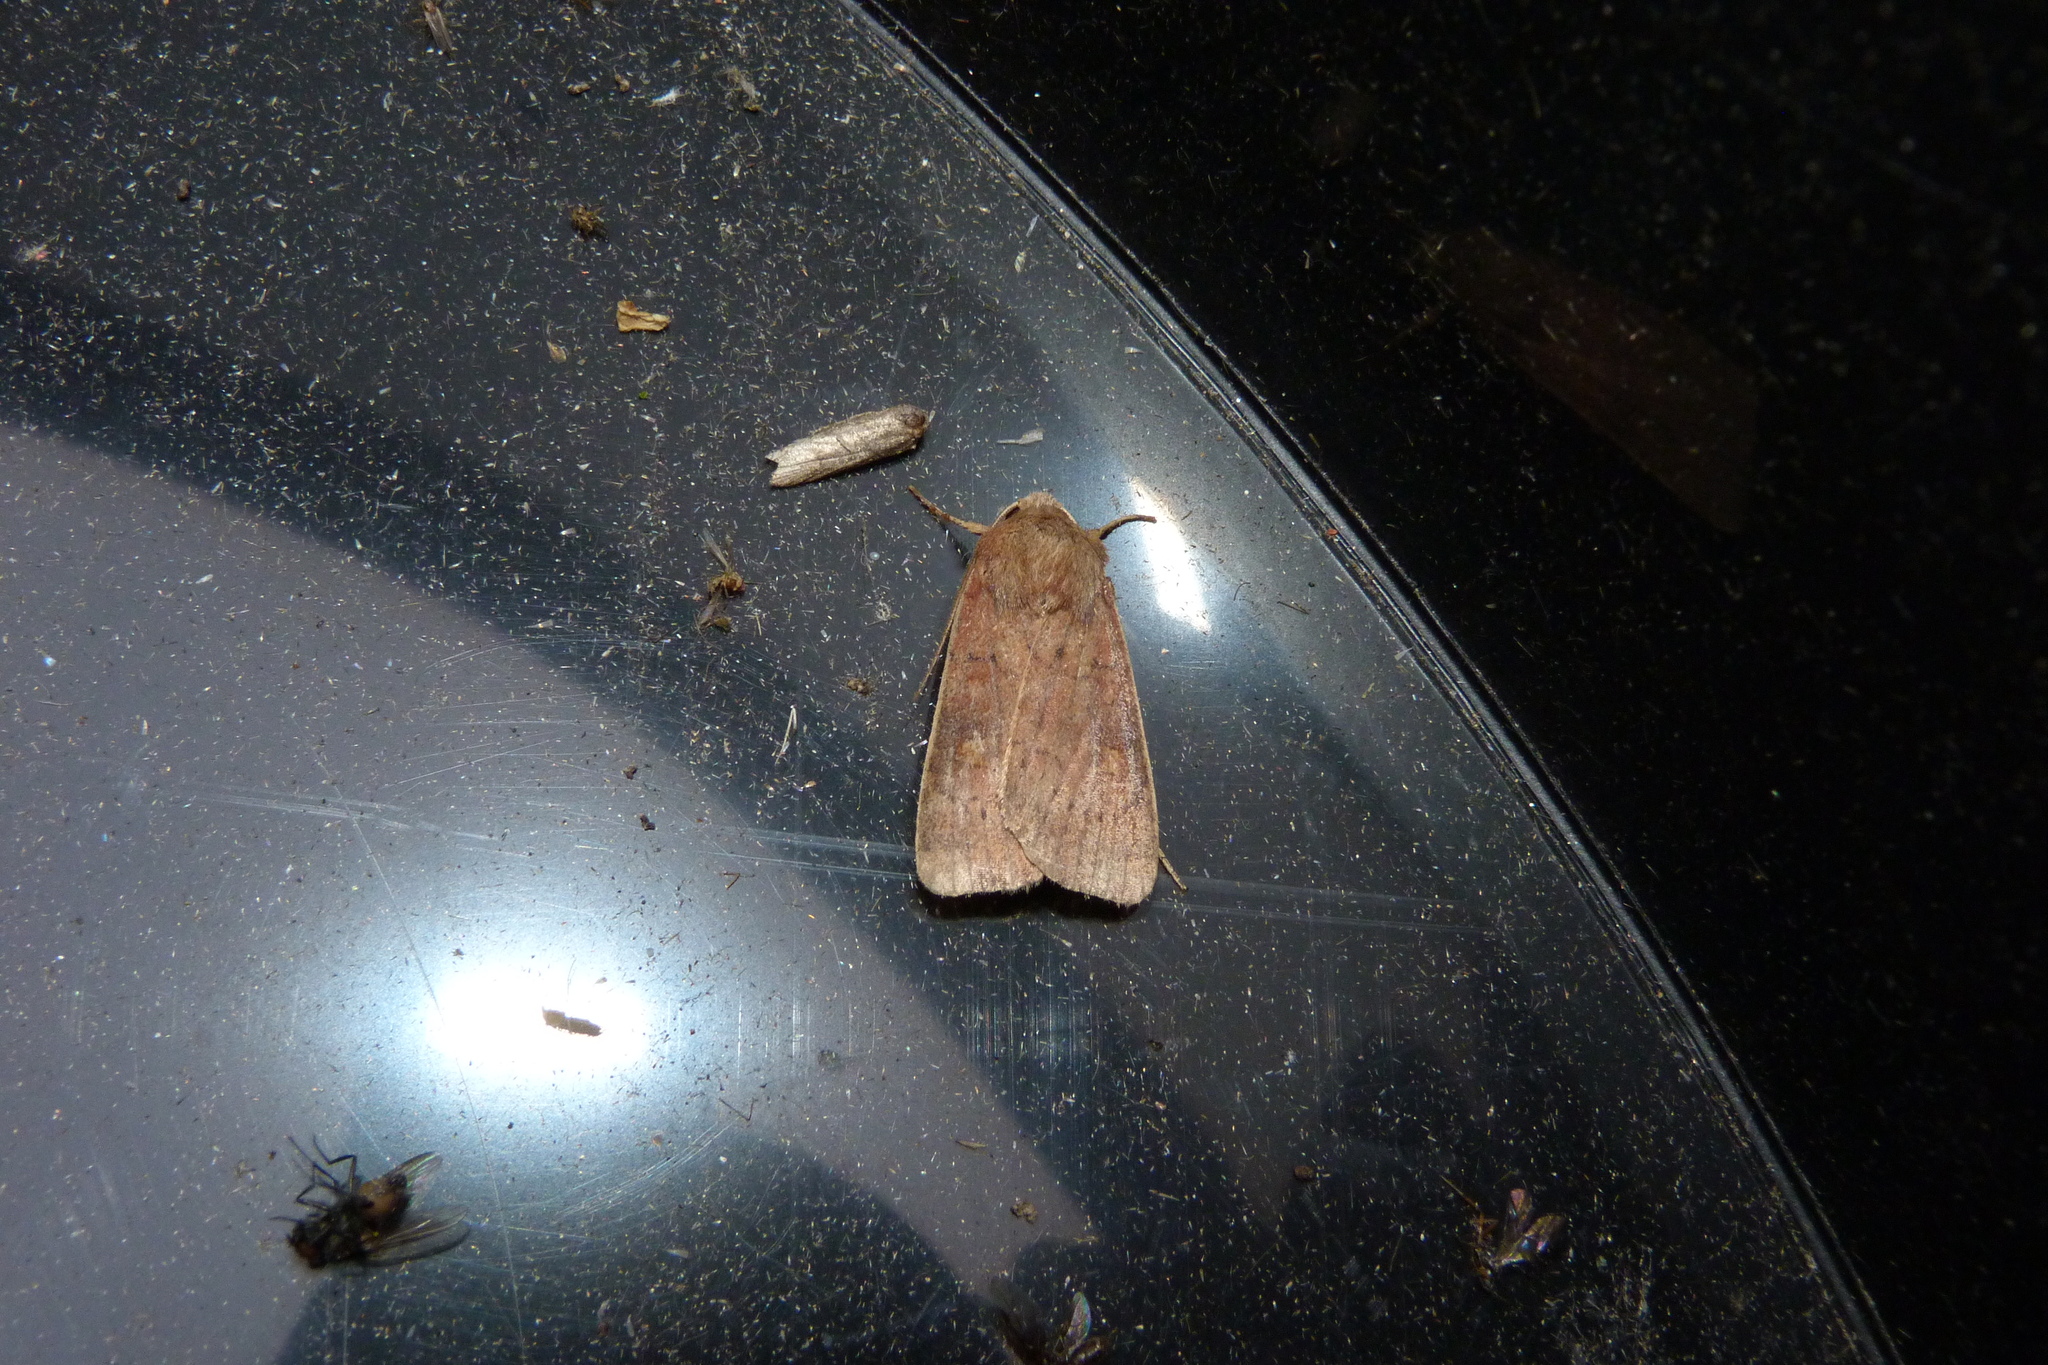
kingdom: Animalia
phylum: Arthropoda
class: Insecta
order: Lepidoptera
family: Noctuidae
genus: Xestia
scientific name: Xestia xanthographa
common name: Square-spot rustic
